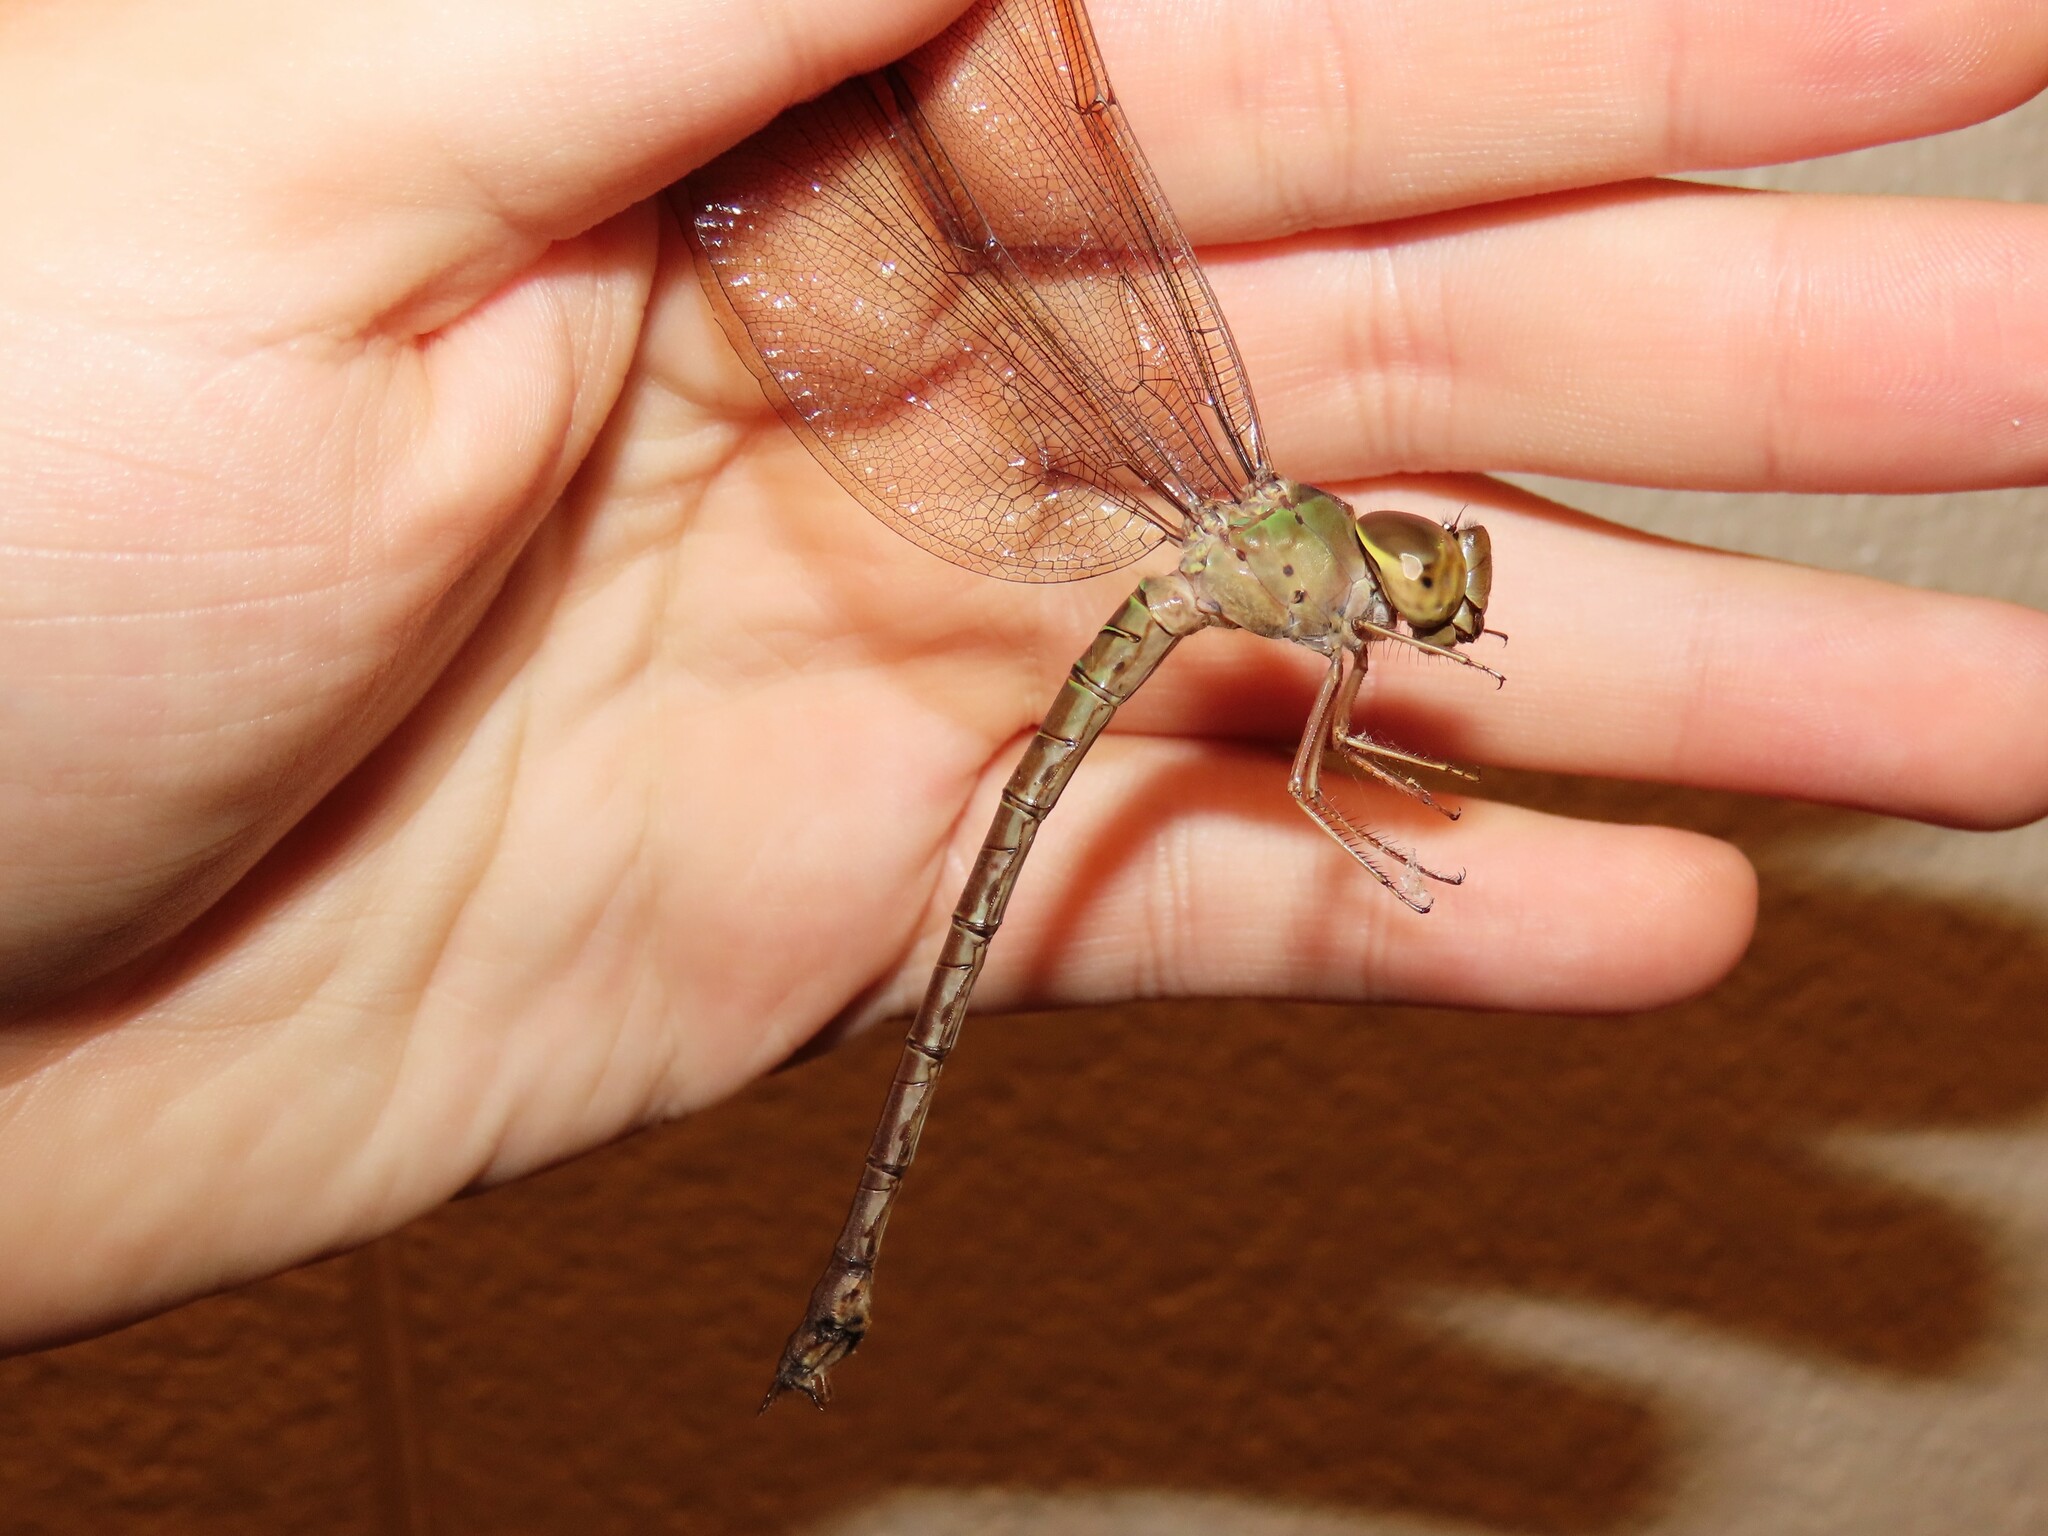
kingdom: Animalia
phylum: Arthropoda
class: Insecta
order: Odonata
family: Aeshnidae
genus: Gynacantha
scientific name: Gynacantha nervosa
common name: Twilight darner
